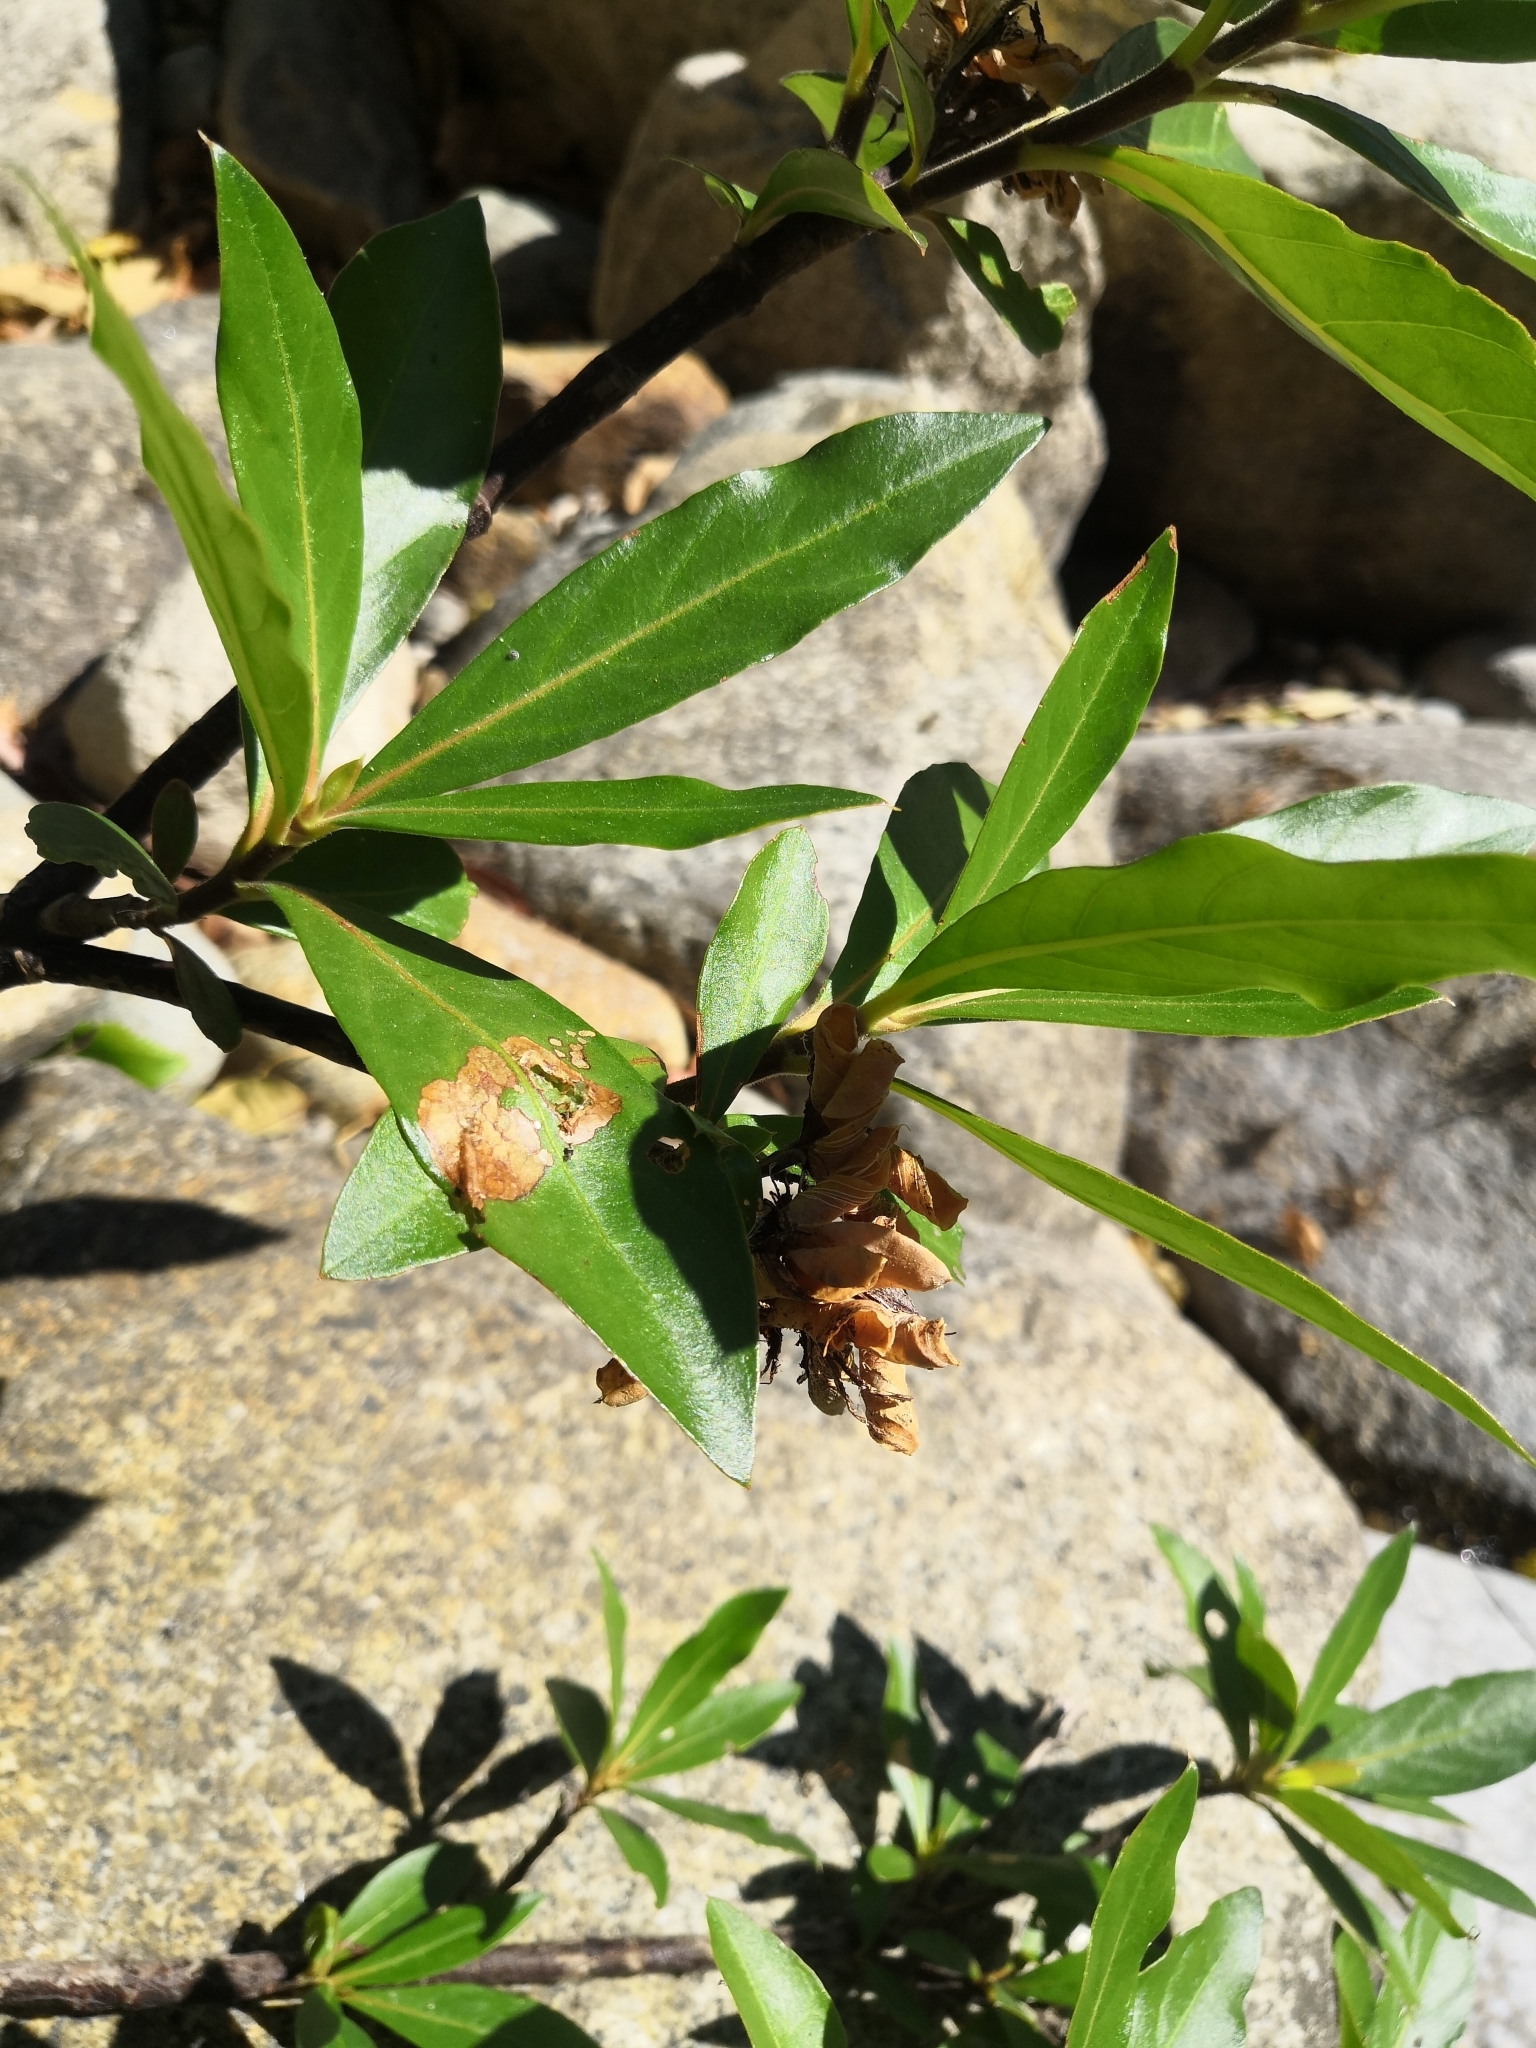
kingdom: Plantae
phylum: Tracheophyta
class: Magnoliopsida
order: Gentianales
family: Rubiaceae
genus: Augusta
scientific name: Augusta rivalis
